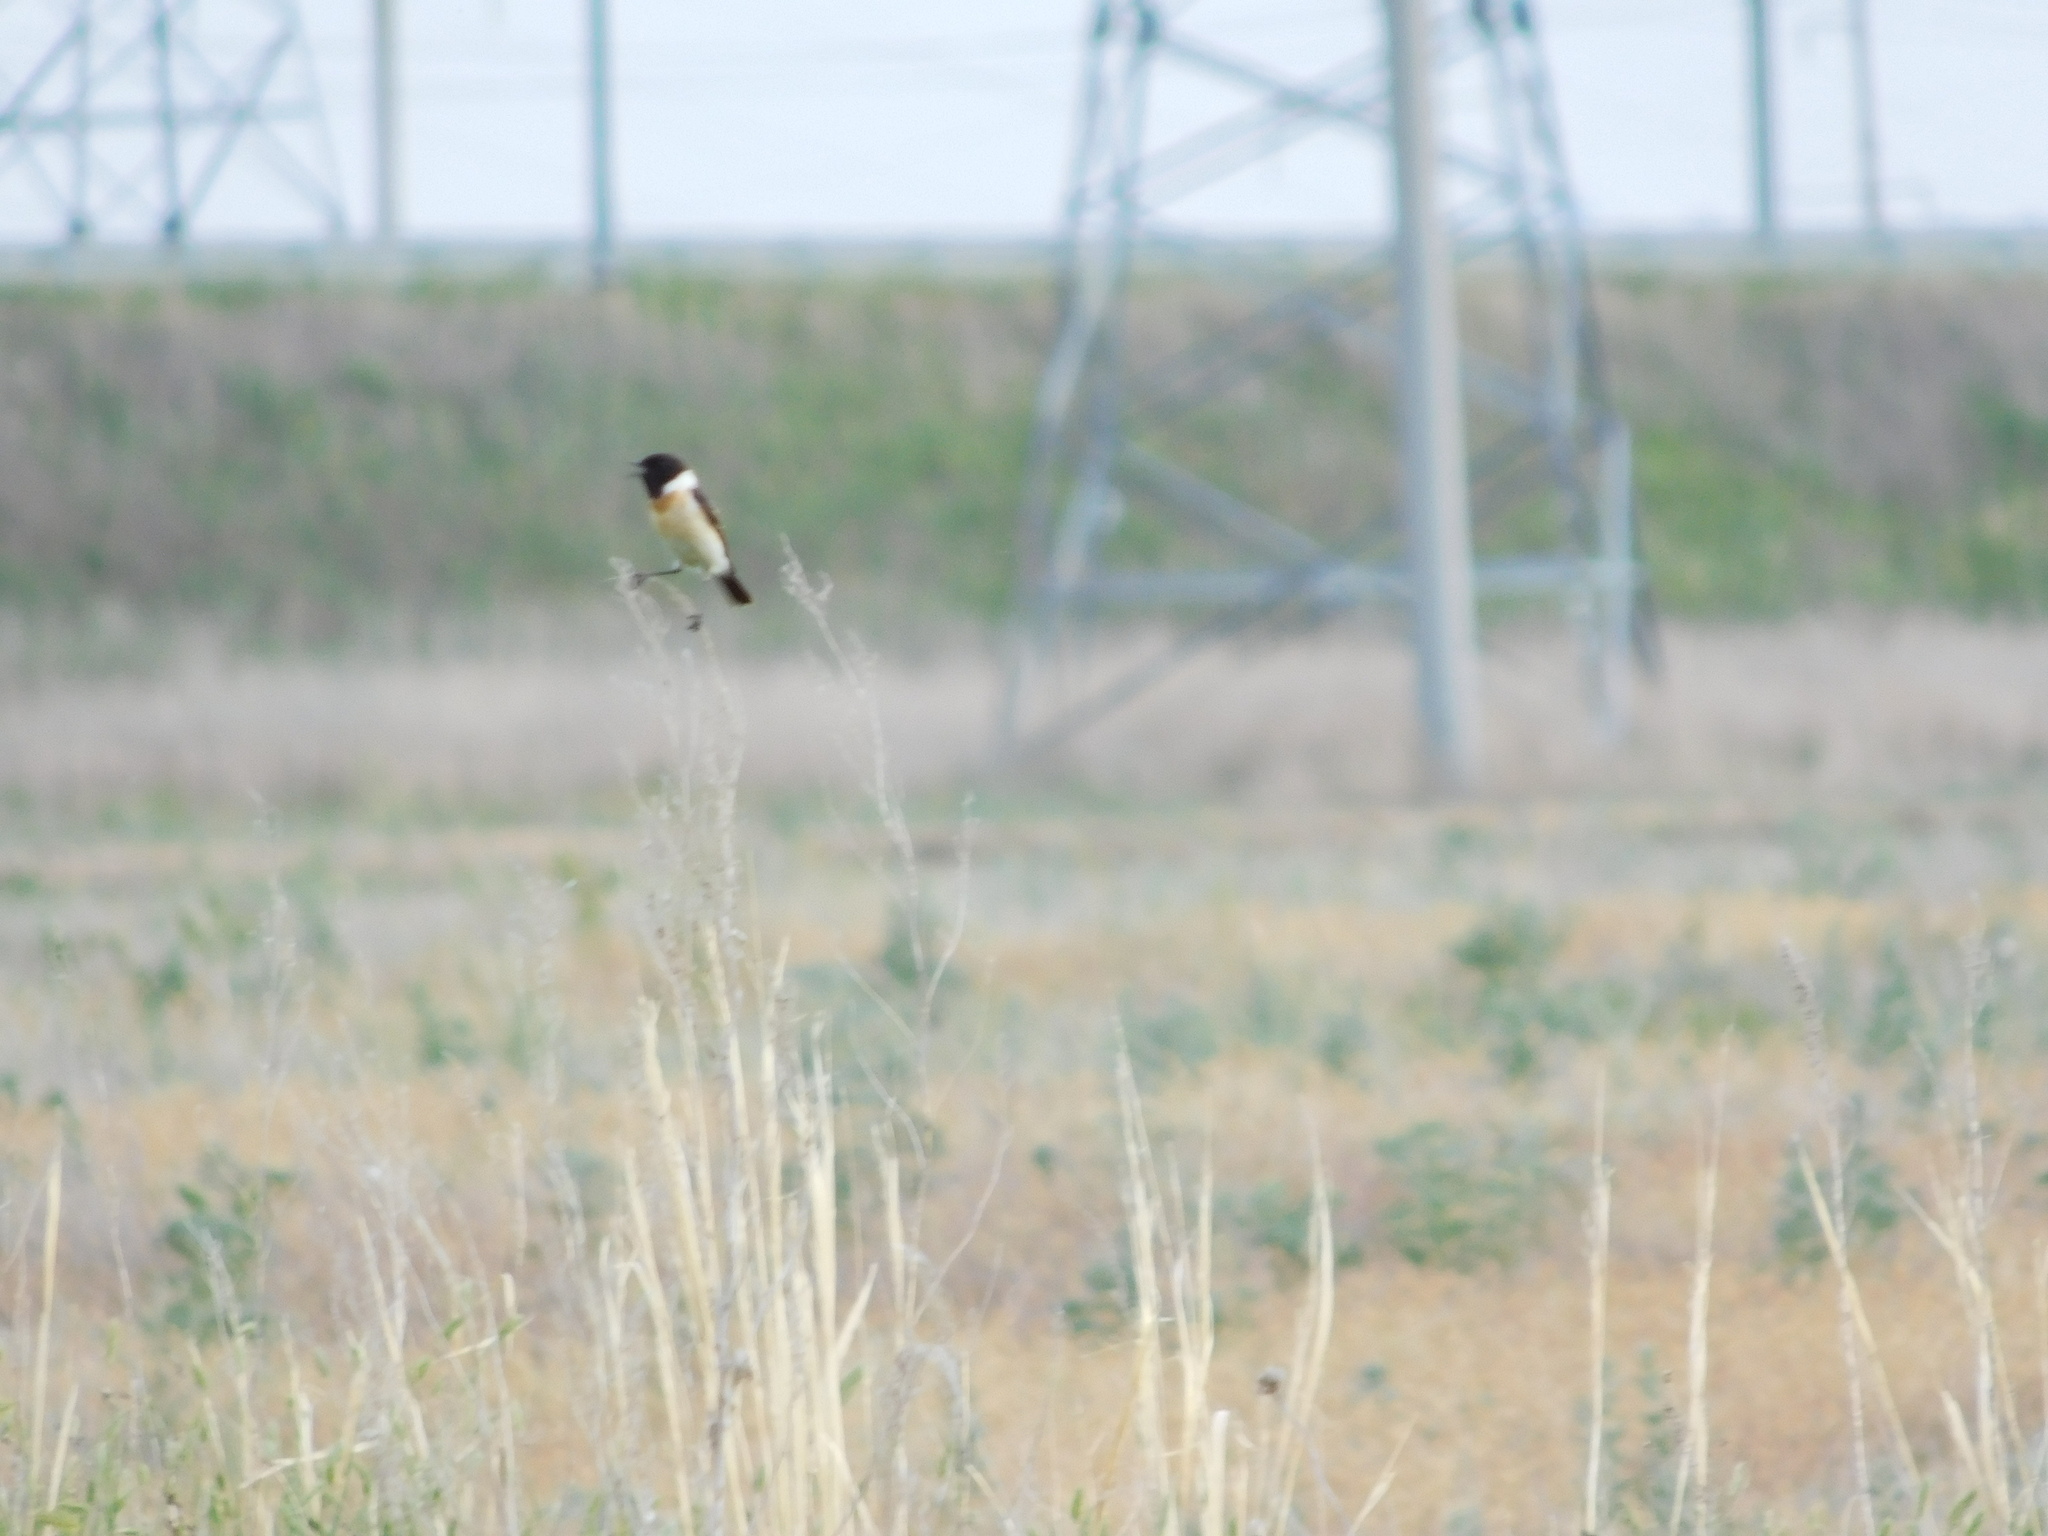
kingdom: Animalia
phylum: Chordata
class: Aves
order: Passeriformes
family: Muscicapidae
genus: Saxicola
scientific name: Saxicola maurus
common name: Siberian stonechat
